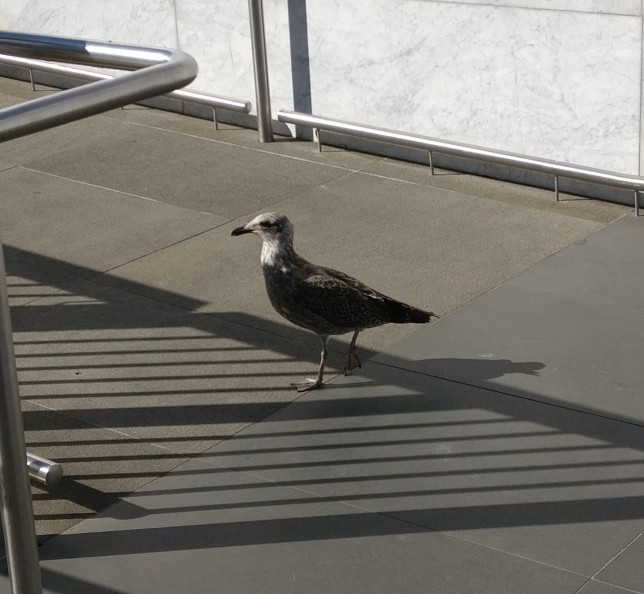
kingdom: Animalia
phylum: Chordata
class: Aves
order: Charadriiformes
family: Laridae
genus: Larus
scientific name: Larus dominicanus
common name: Kelp gull
